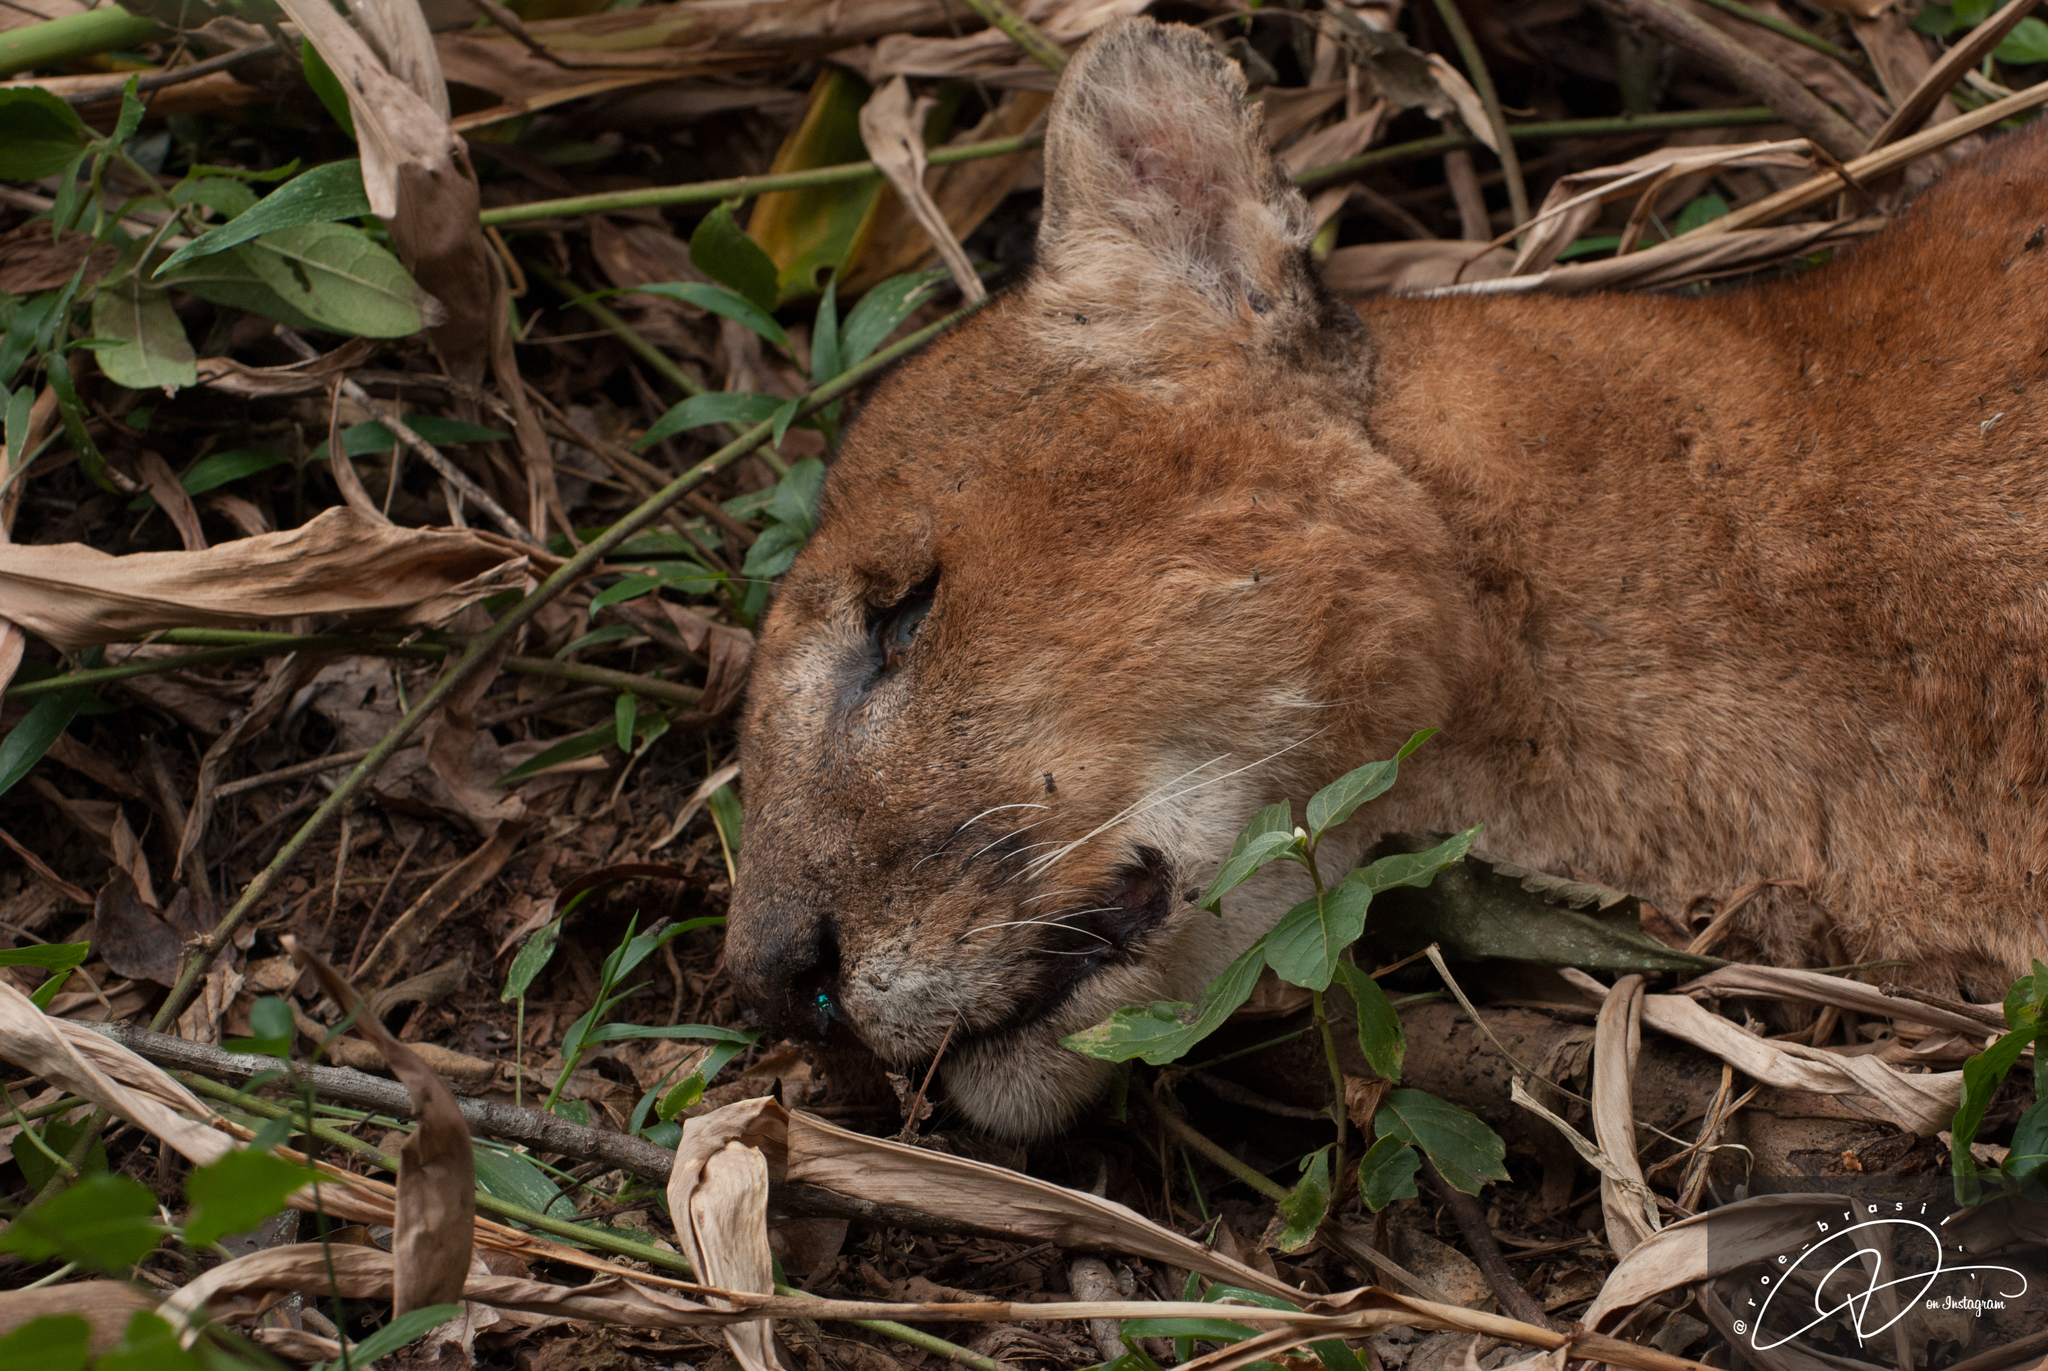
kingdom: Animalia
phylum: Chordata
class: Mammalia
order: Carnivora
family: Felidae
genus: Puma
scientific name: Puma concolor
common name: Puma
